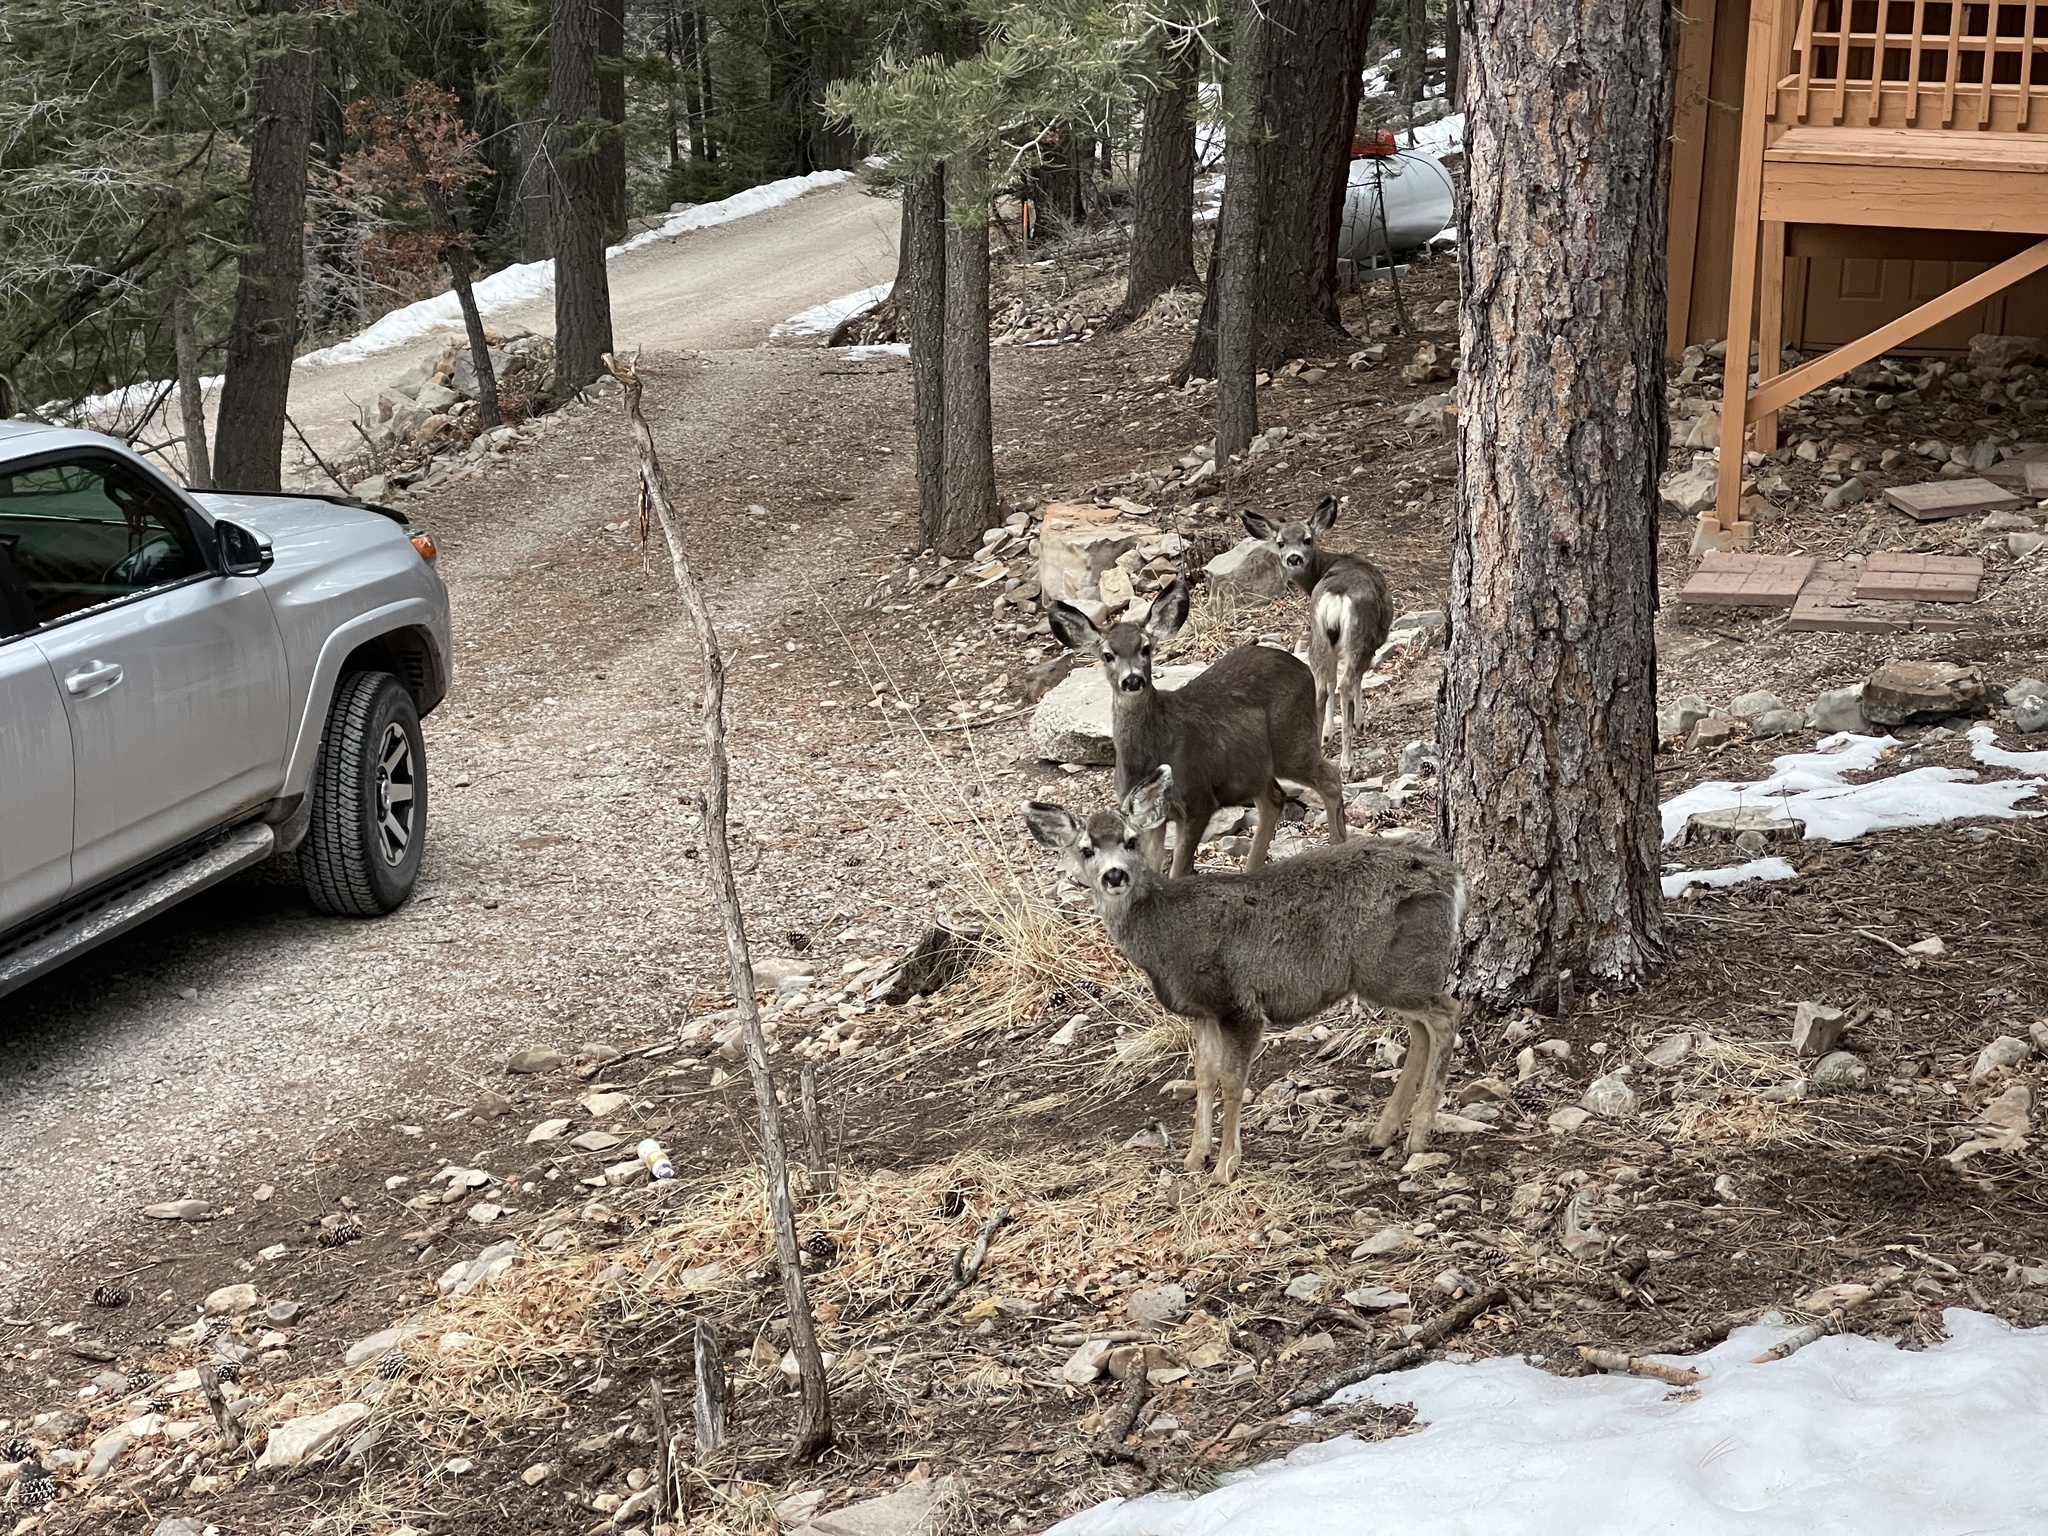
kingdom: Animalia
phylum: Chordata
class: Mammalia
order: Artiodactyla
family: Cervidae
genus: Odocoileus
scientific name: Odocoileus hemionus
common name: Mule deer
